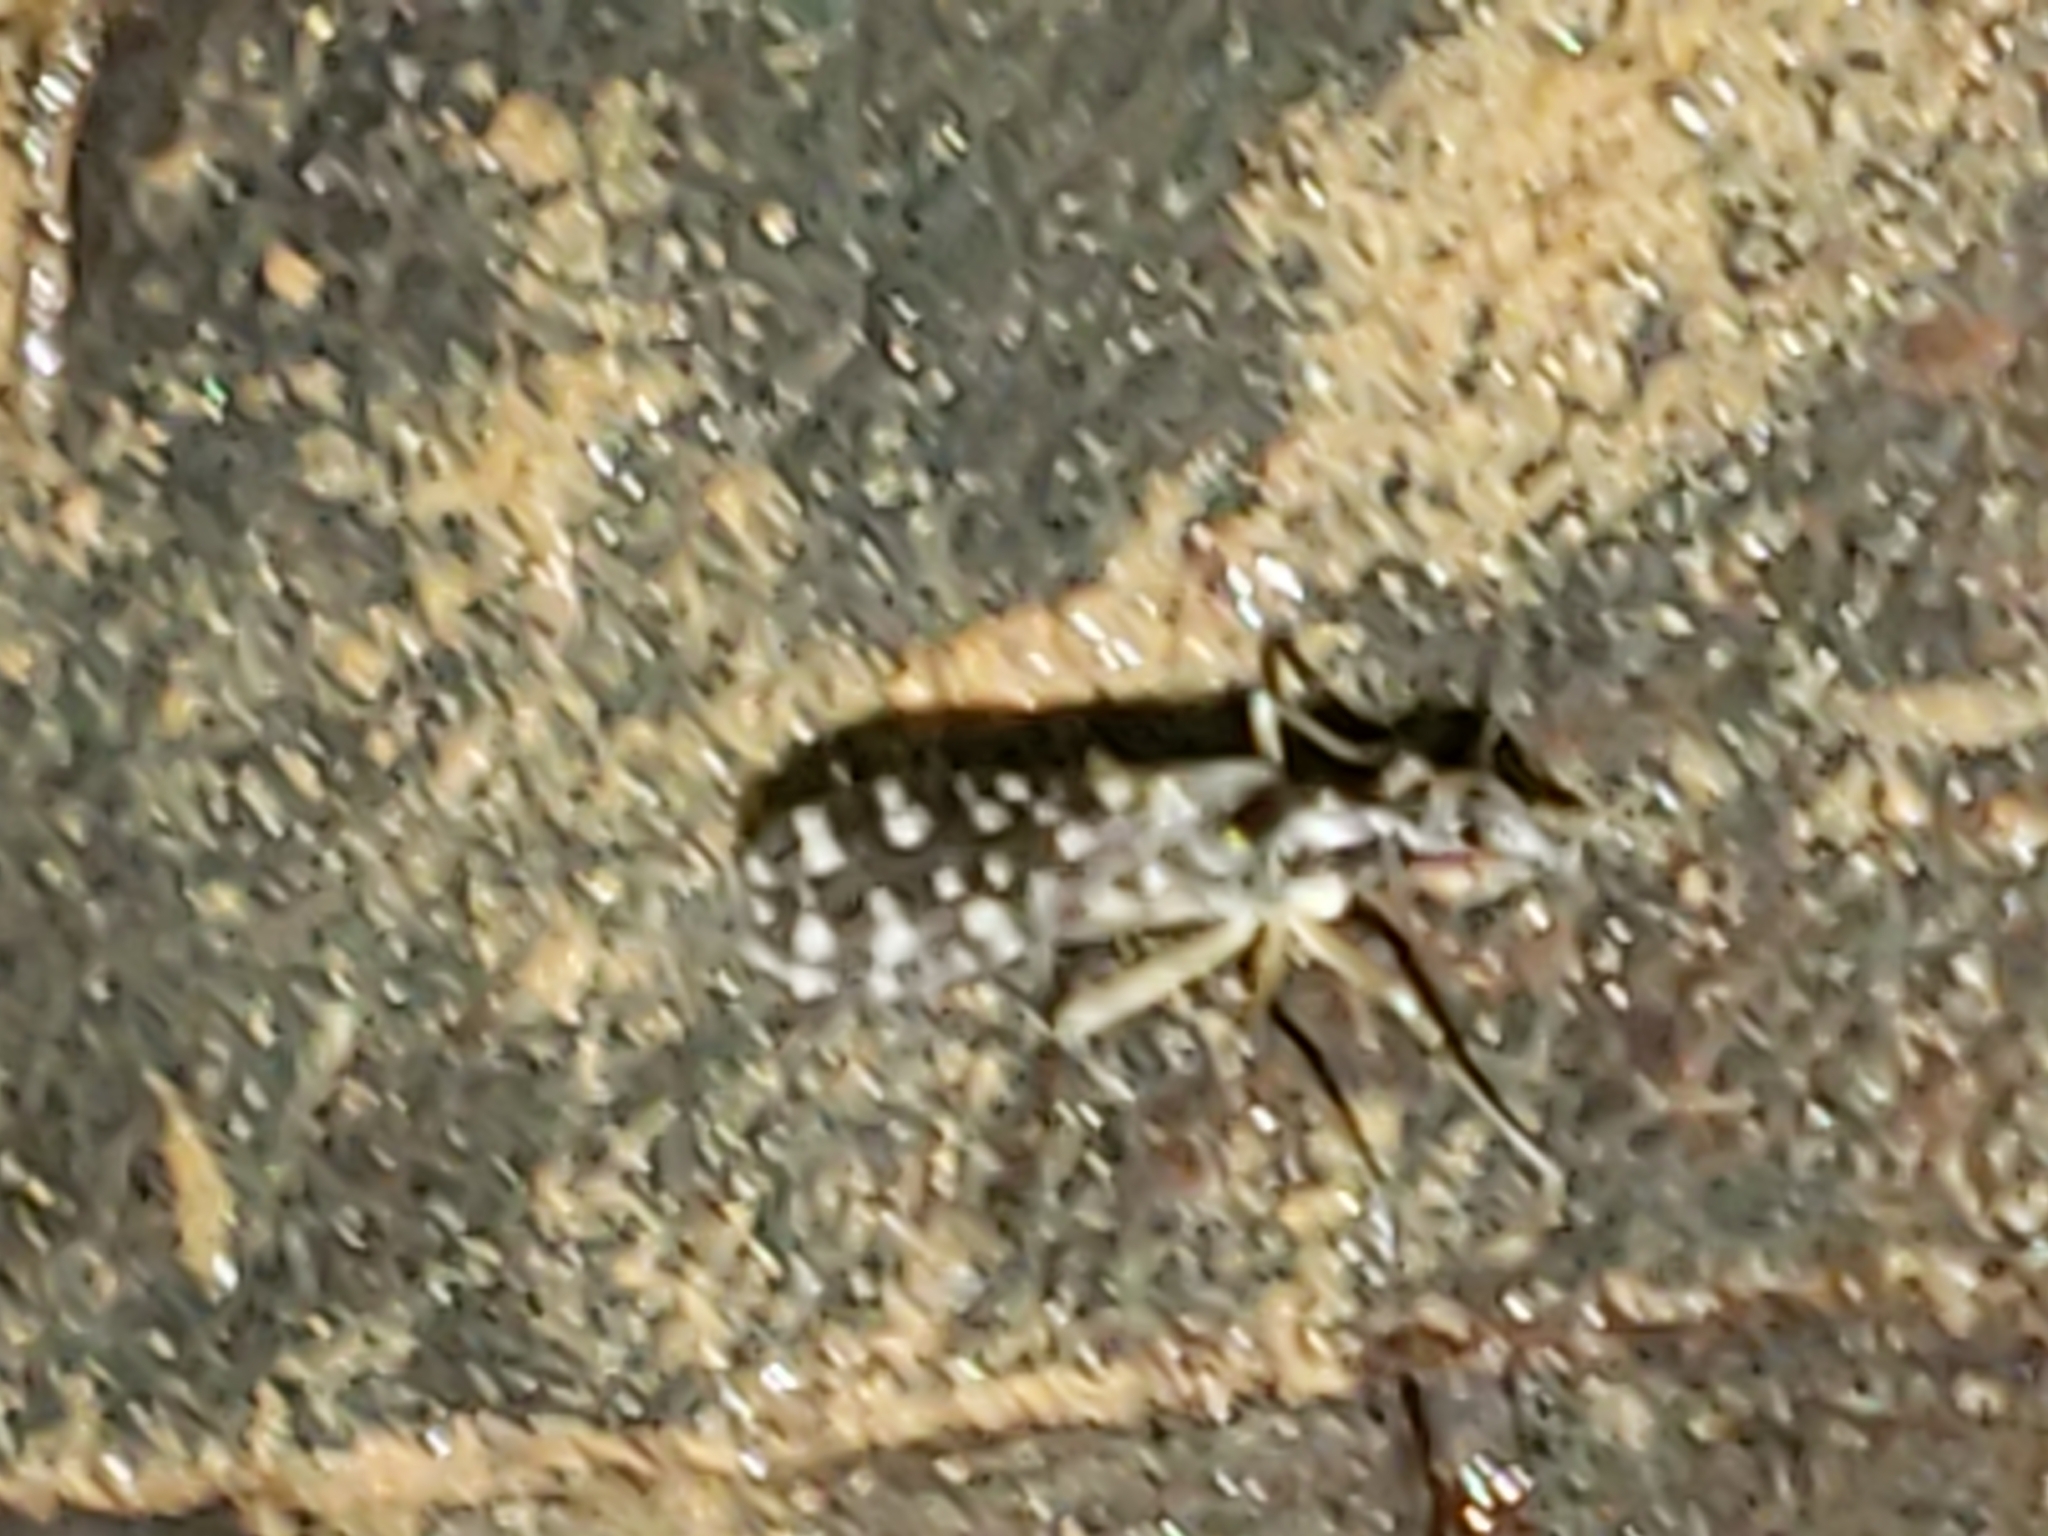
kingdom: Animalia
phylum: Arthropoda
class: Insecta
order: Diptera
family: Empididae
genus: Dolichocephala
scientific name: Dolichocephala vockerothi
